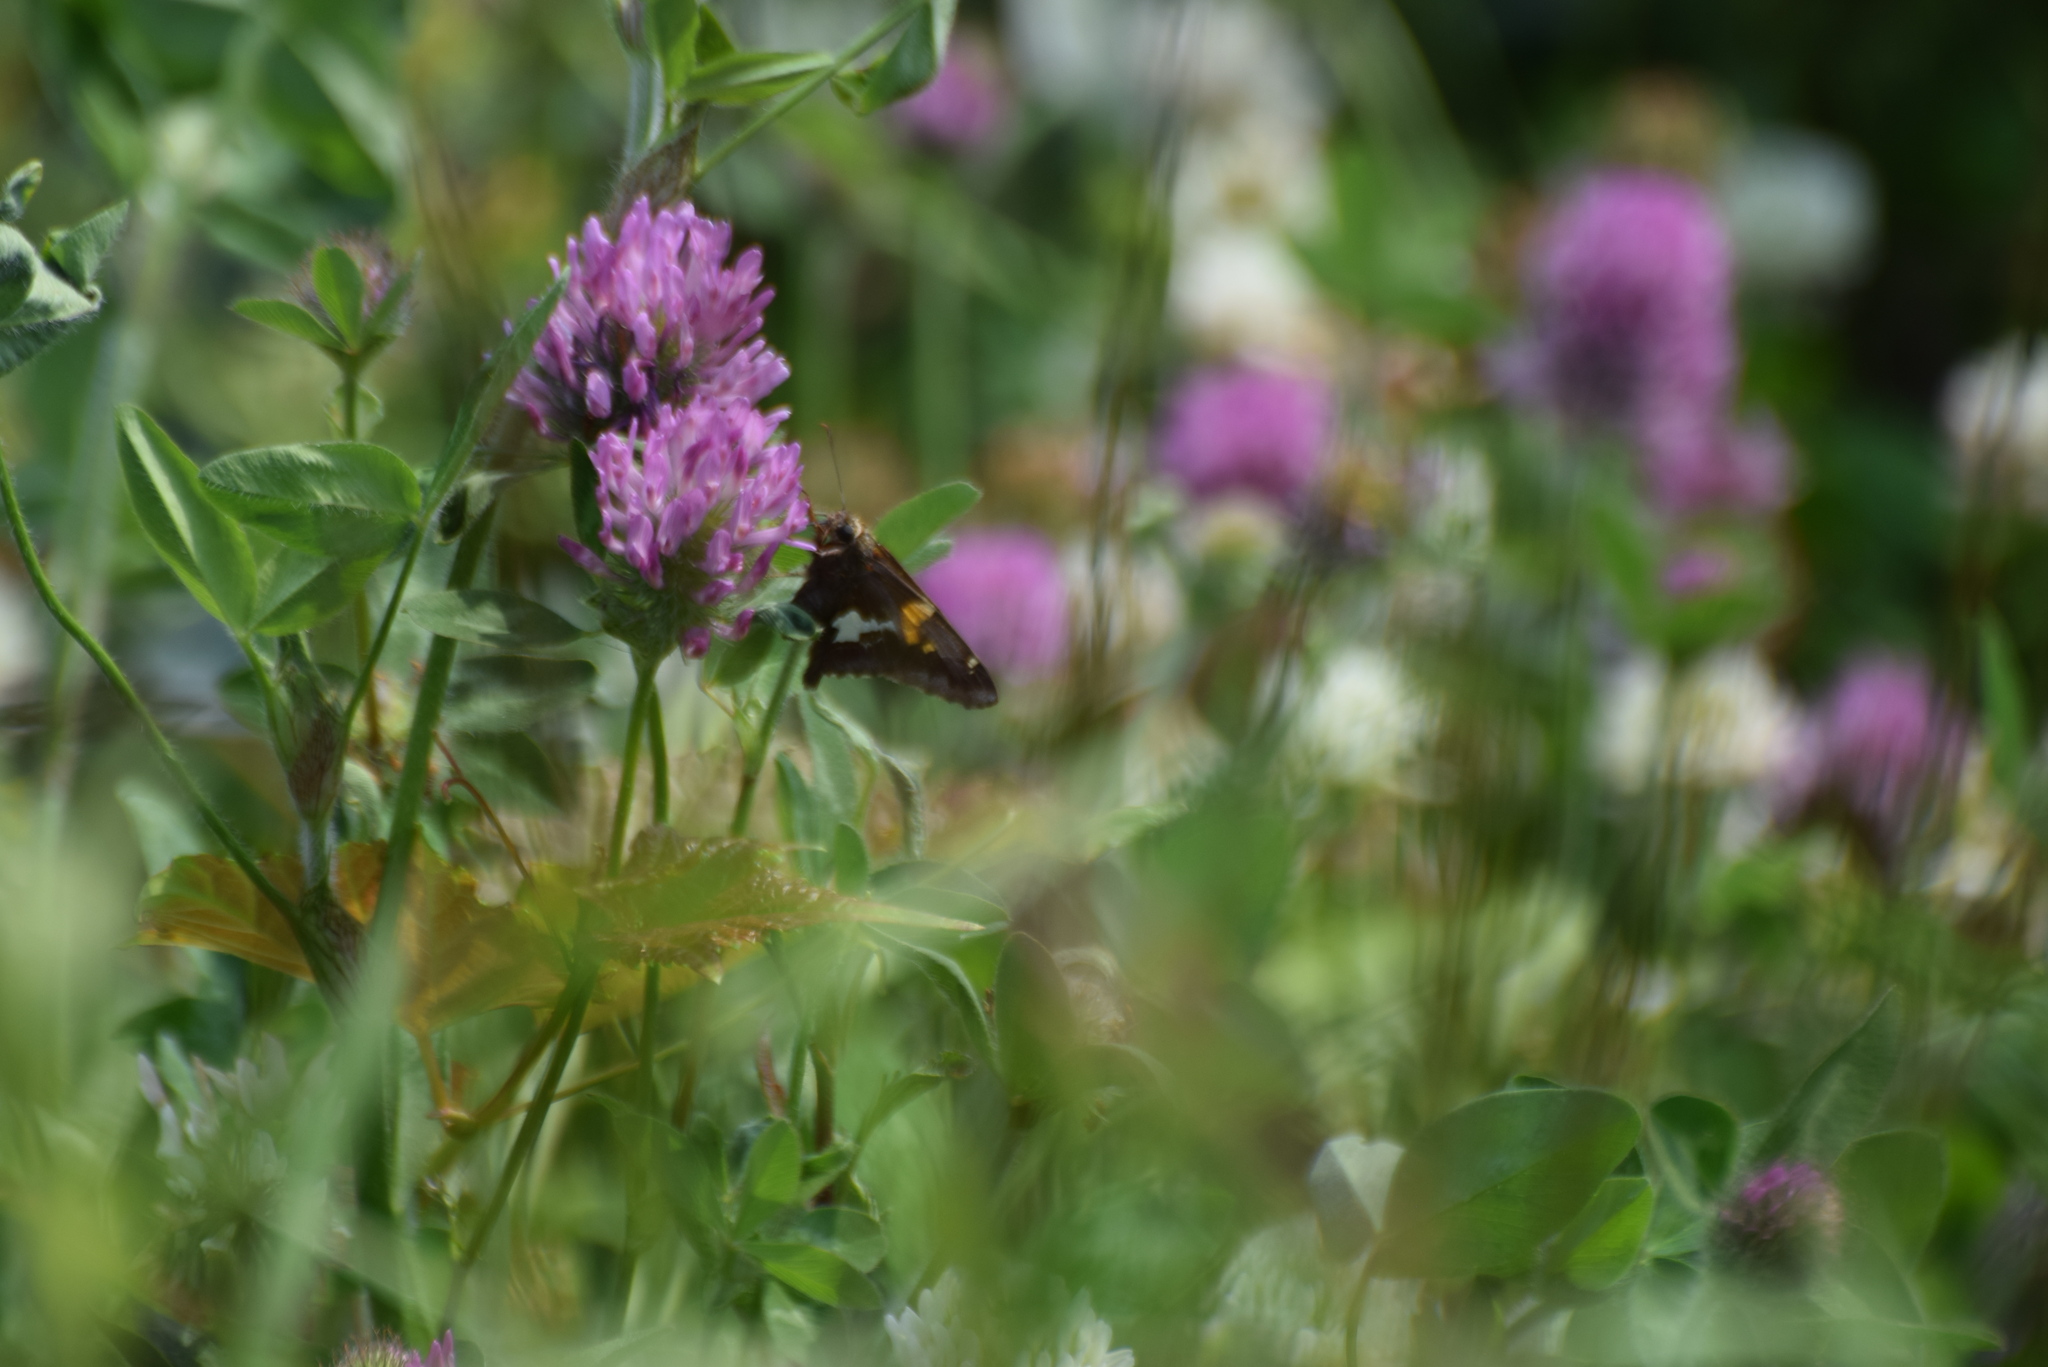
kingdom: Animalia
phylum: Arthropoda
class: Insecta
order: Lepidoptera
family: Hesperiidae
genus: Epargyreus
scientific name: Epargyreus clarus
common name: Silver-spotted skipper
